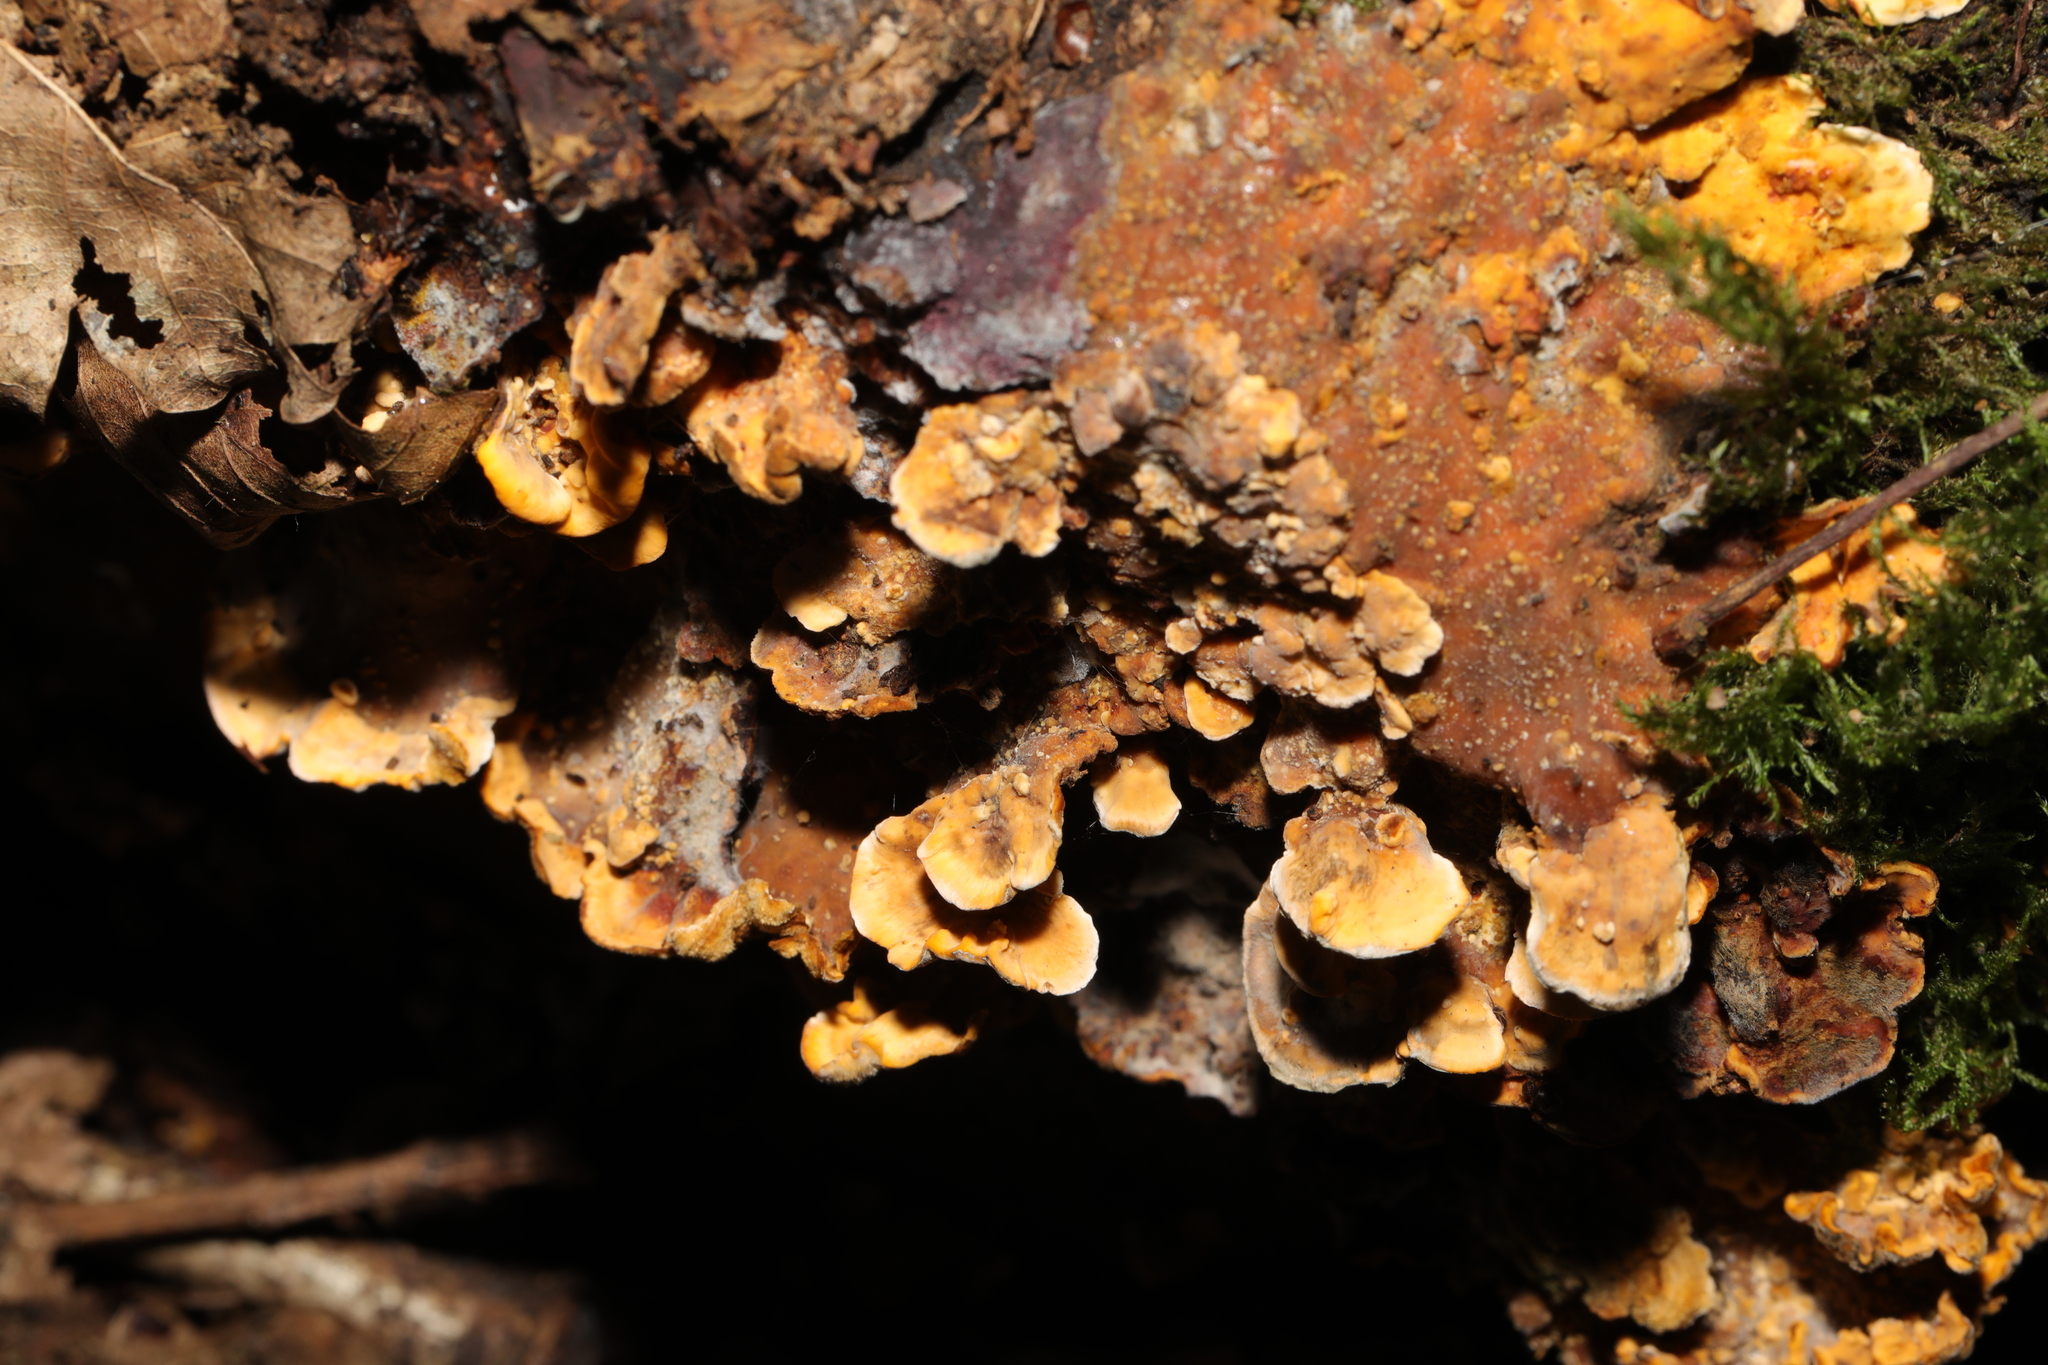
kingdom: Fungi
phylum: Basidiomycota
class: Agaricomycetes
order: Russulales
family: Stereaceae
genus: Stereum
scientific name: Stereum hirsutum
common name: Hairy curtain crust
